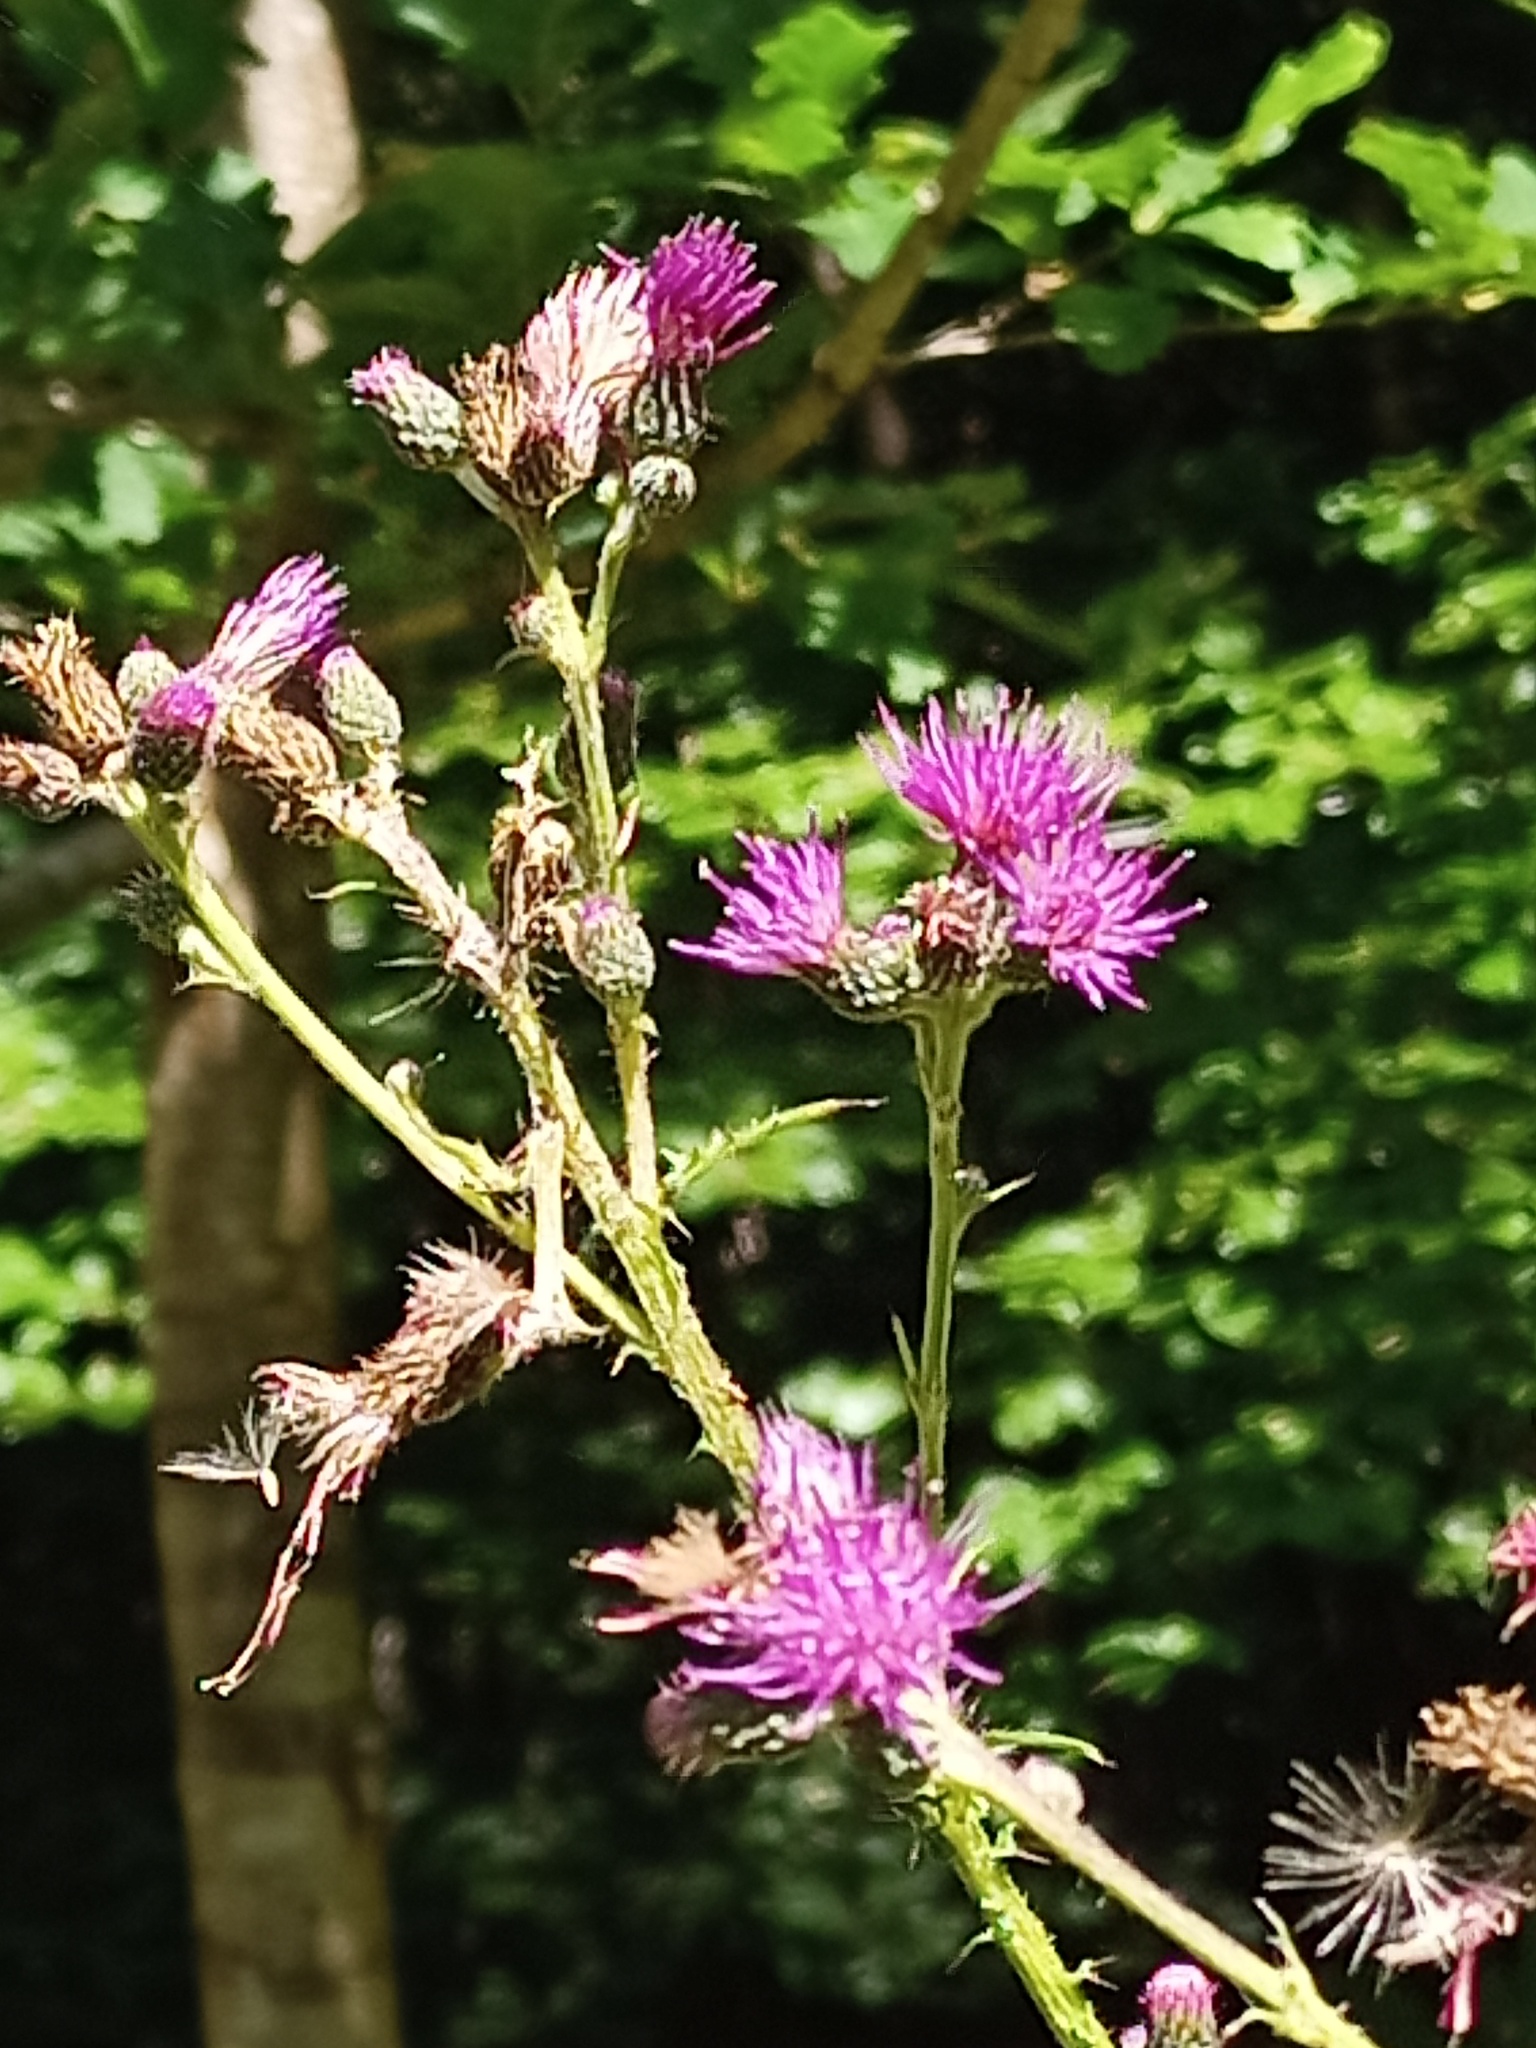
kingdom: Plantae
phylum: Tracheophyta
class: Magnoliopsida
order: Asterales
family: Asteraceae
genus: Cirsium
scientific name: Cirsium palustre
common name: Marsh thistle
